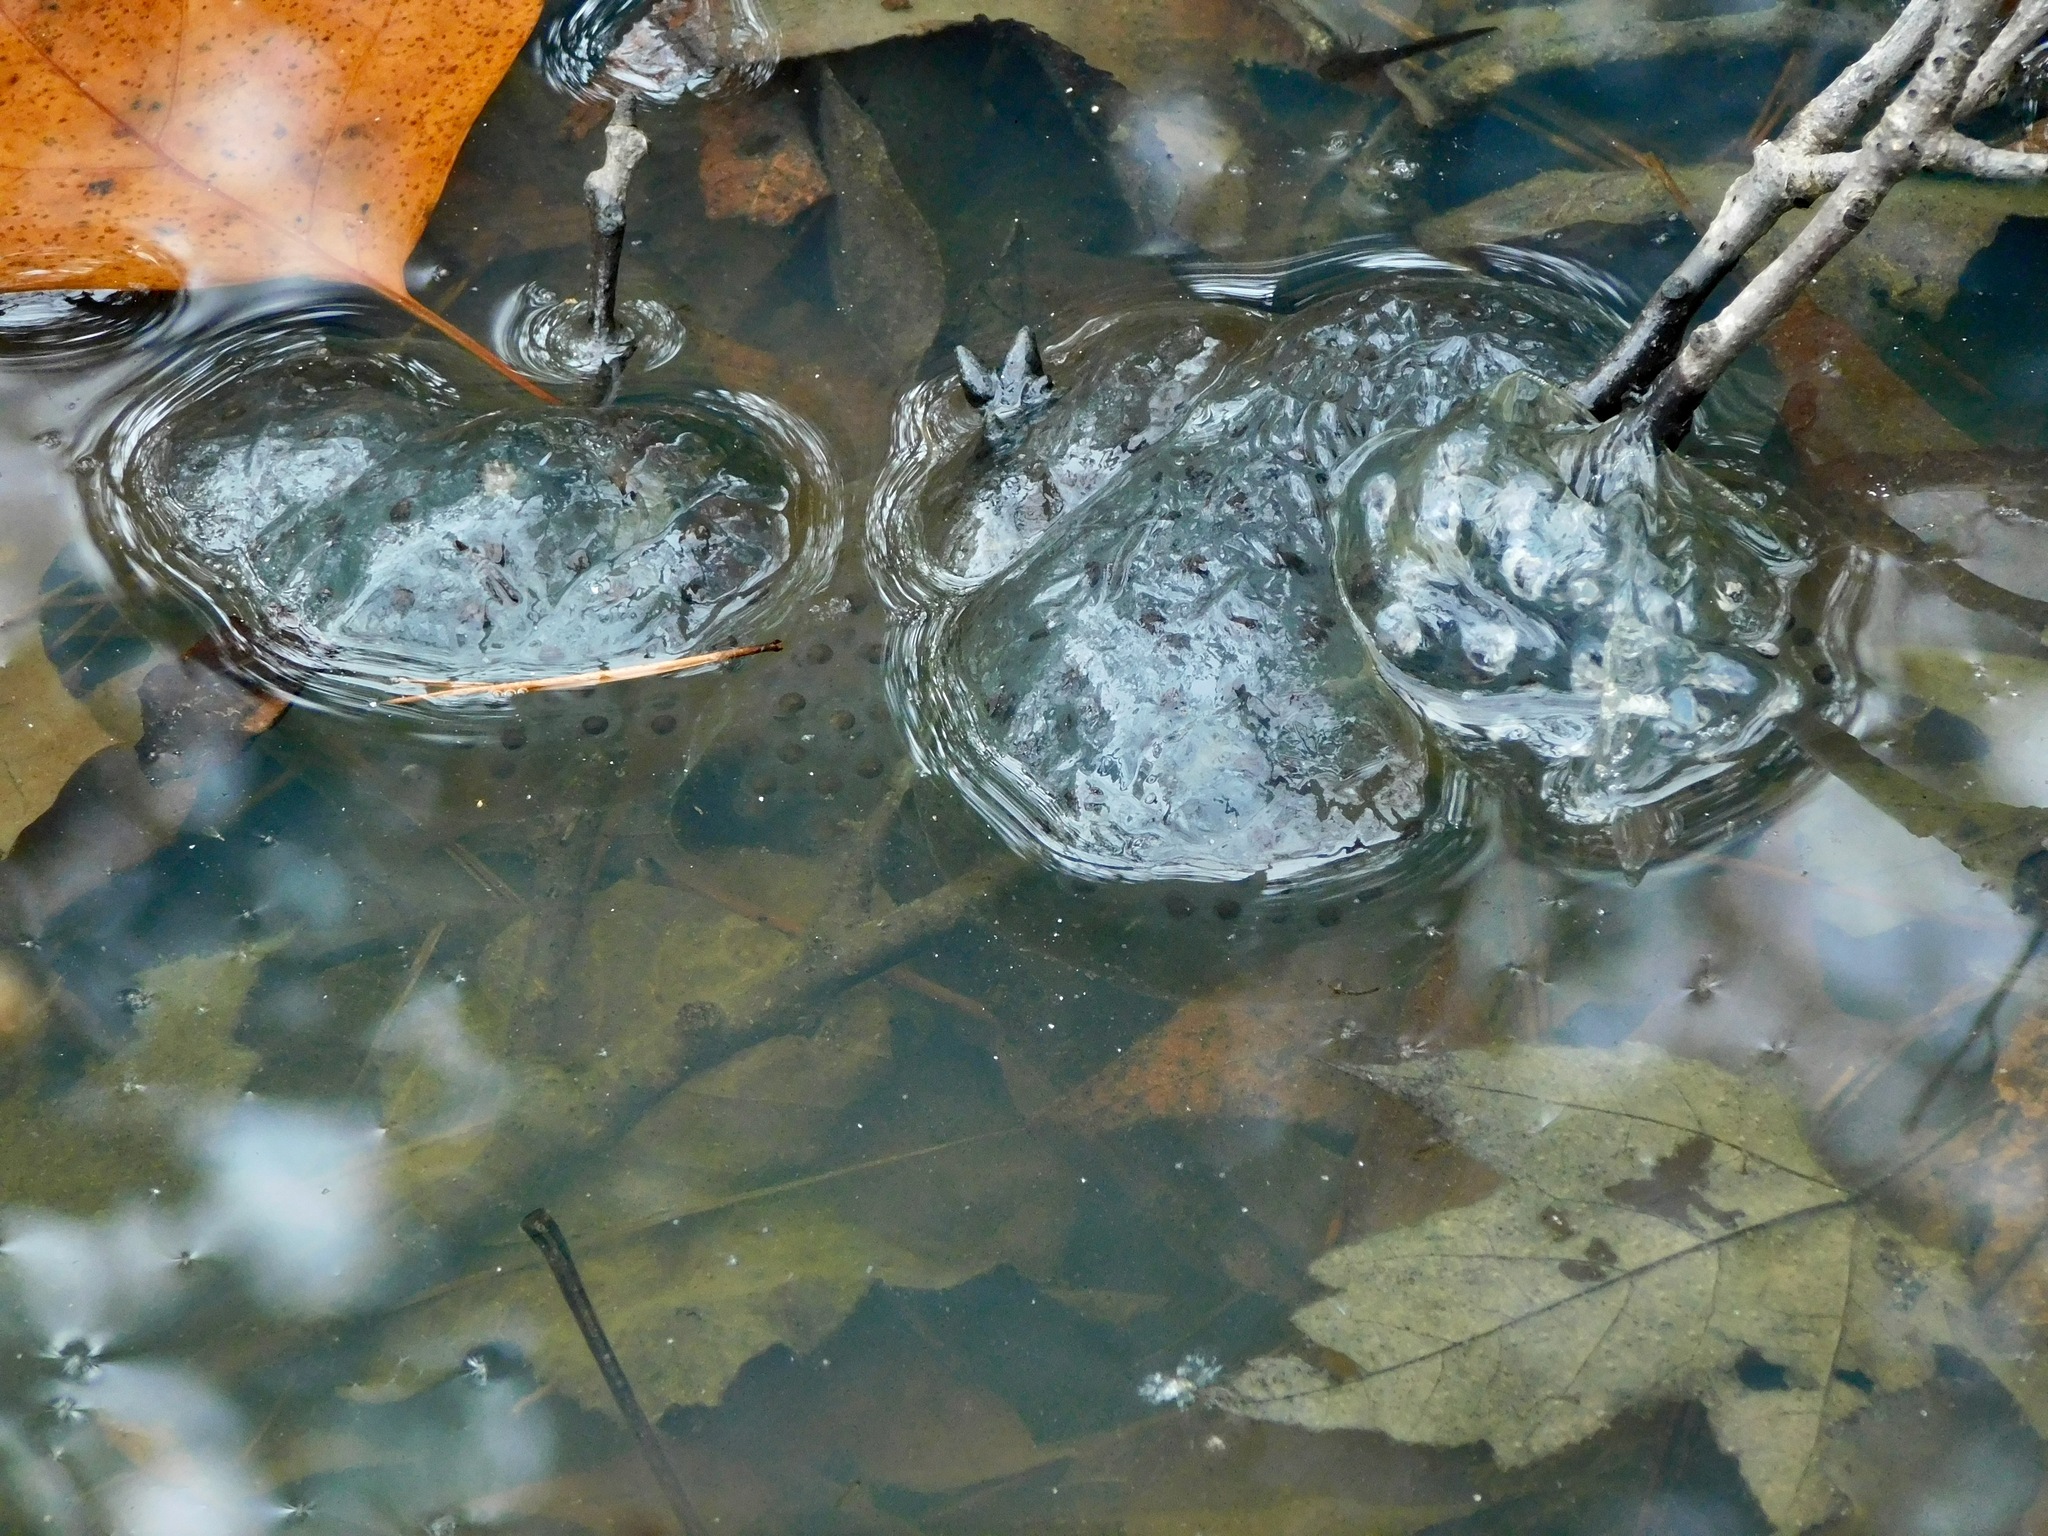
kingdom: Animalia
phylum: Chordata
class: Amphibia
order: Caudata
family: Ambystomatidae
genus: Ambystoma
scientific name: Ambystoma maculatum
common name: Spotted salamander
